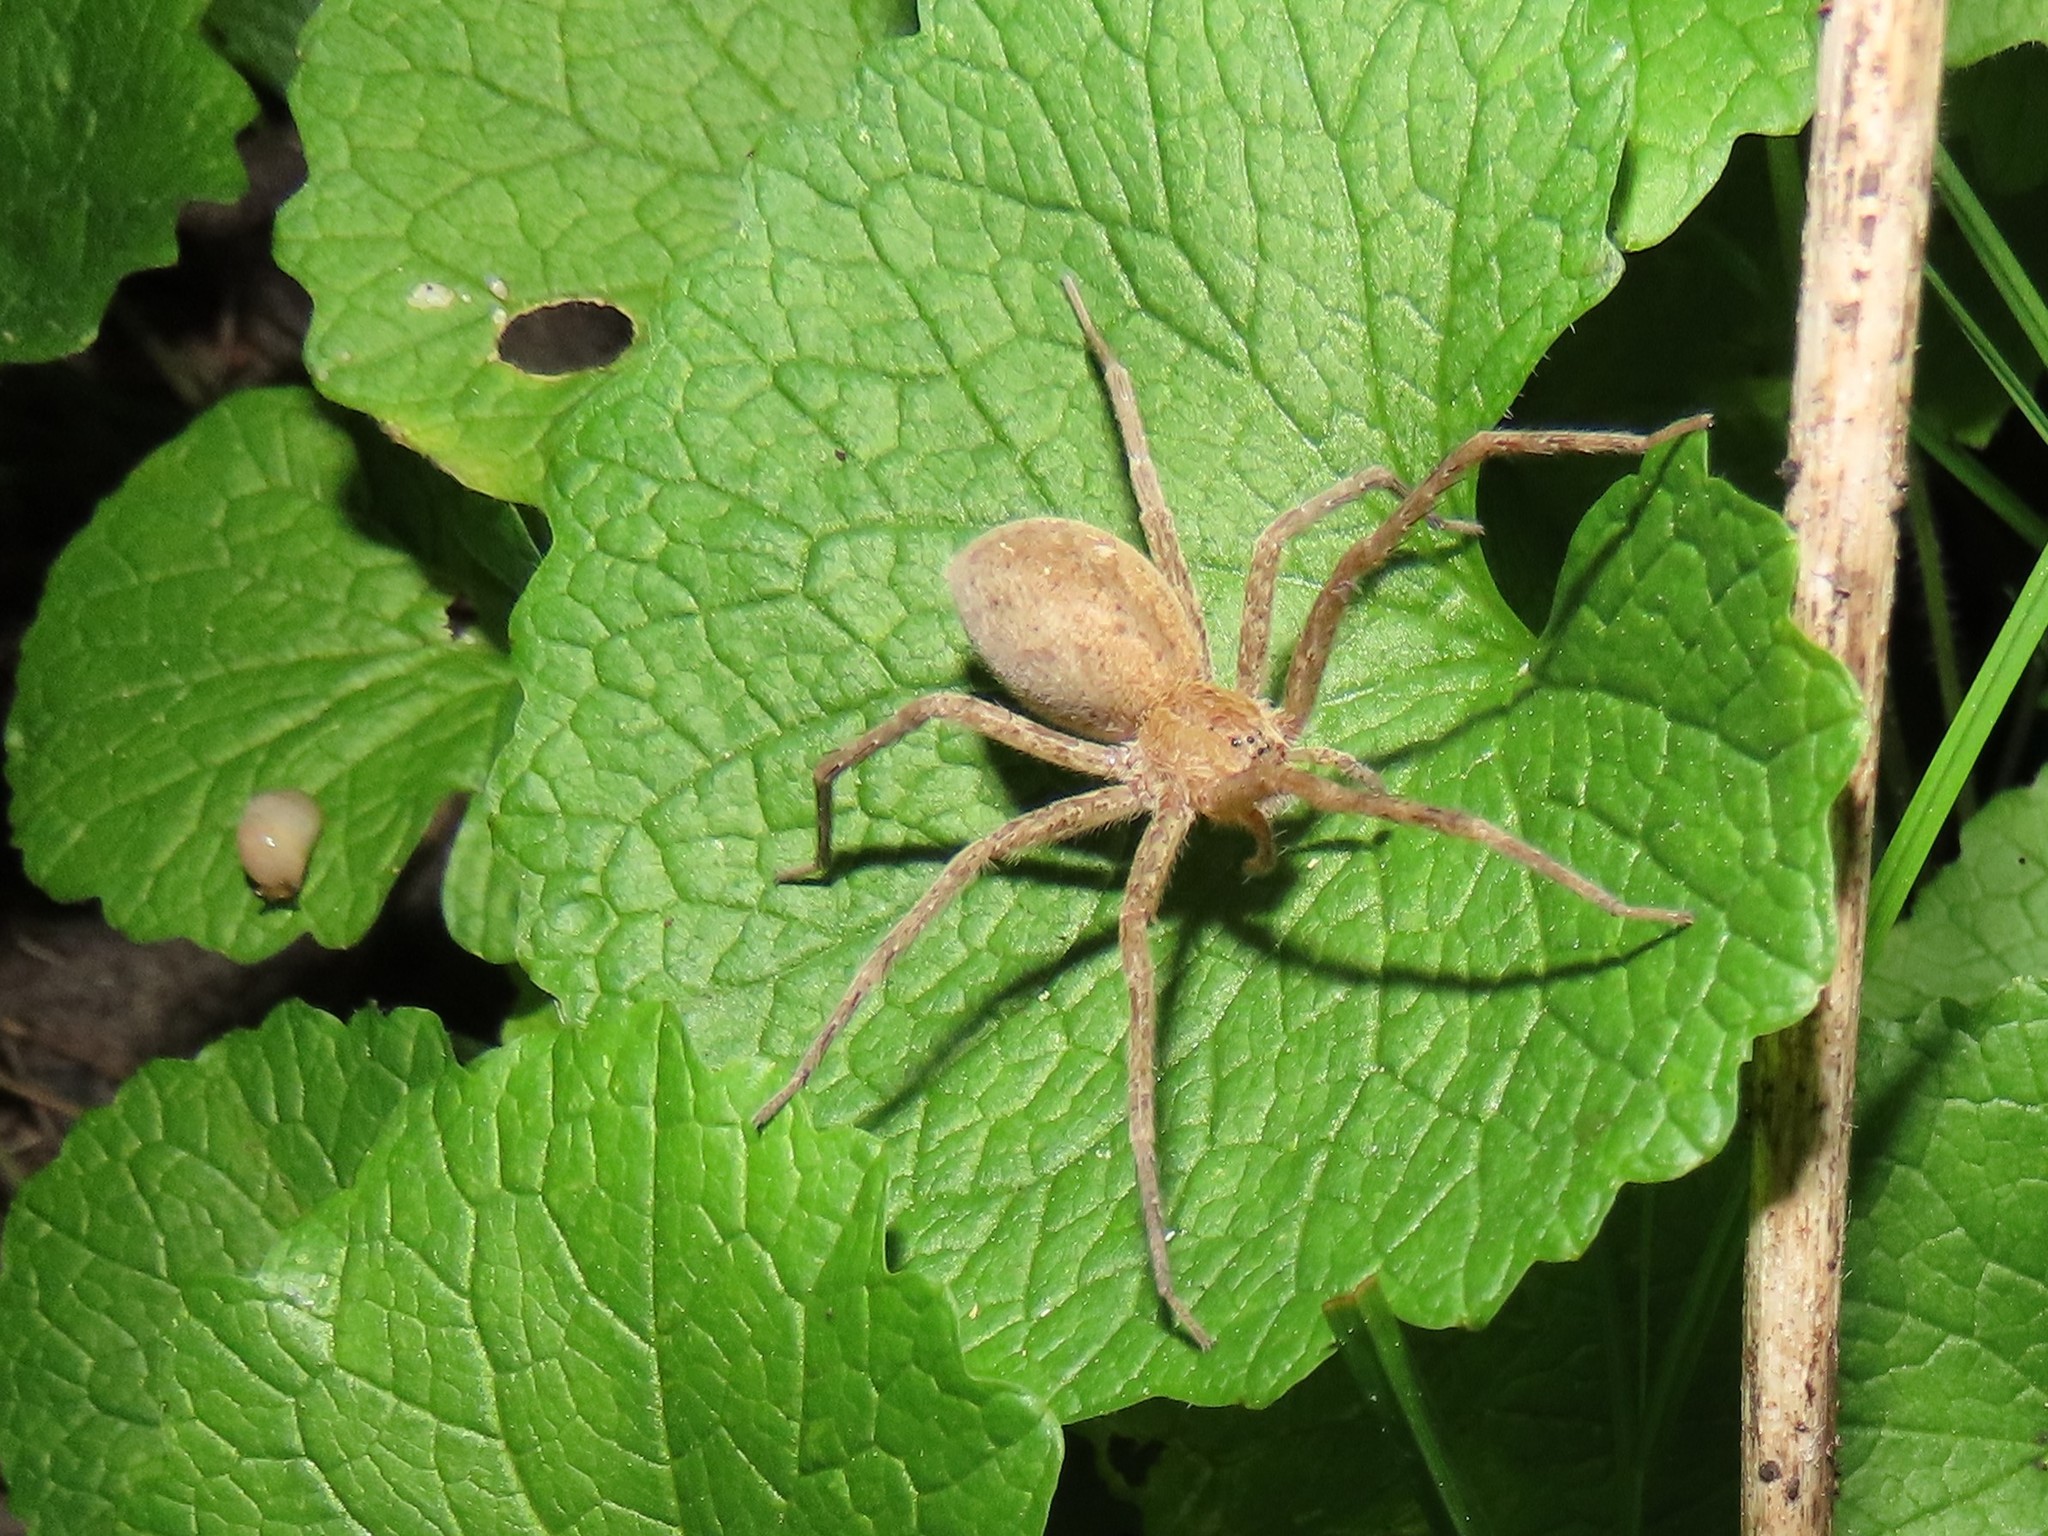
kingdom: Animalia
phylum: Arthropoda
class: Arachnida
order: Araneae
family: Pisauridae
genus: Pisaurina
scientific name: Pisaurina mira
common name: American nursery web spider
